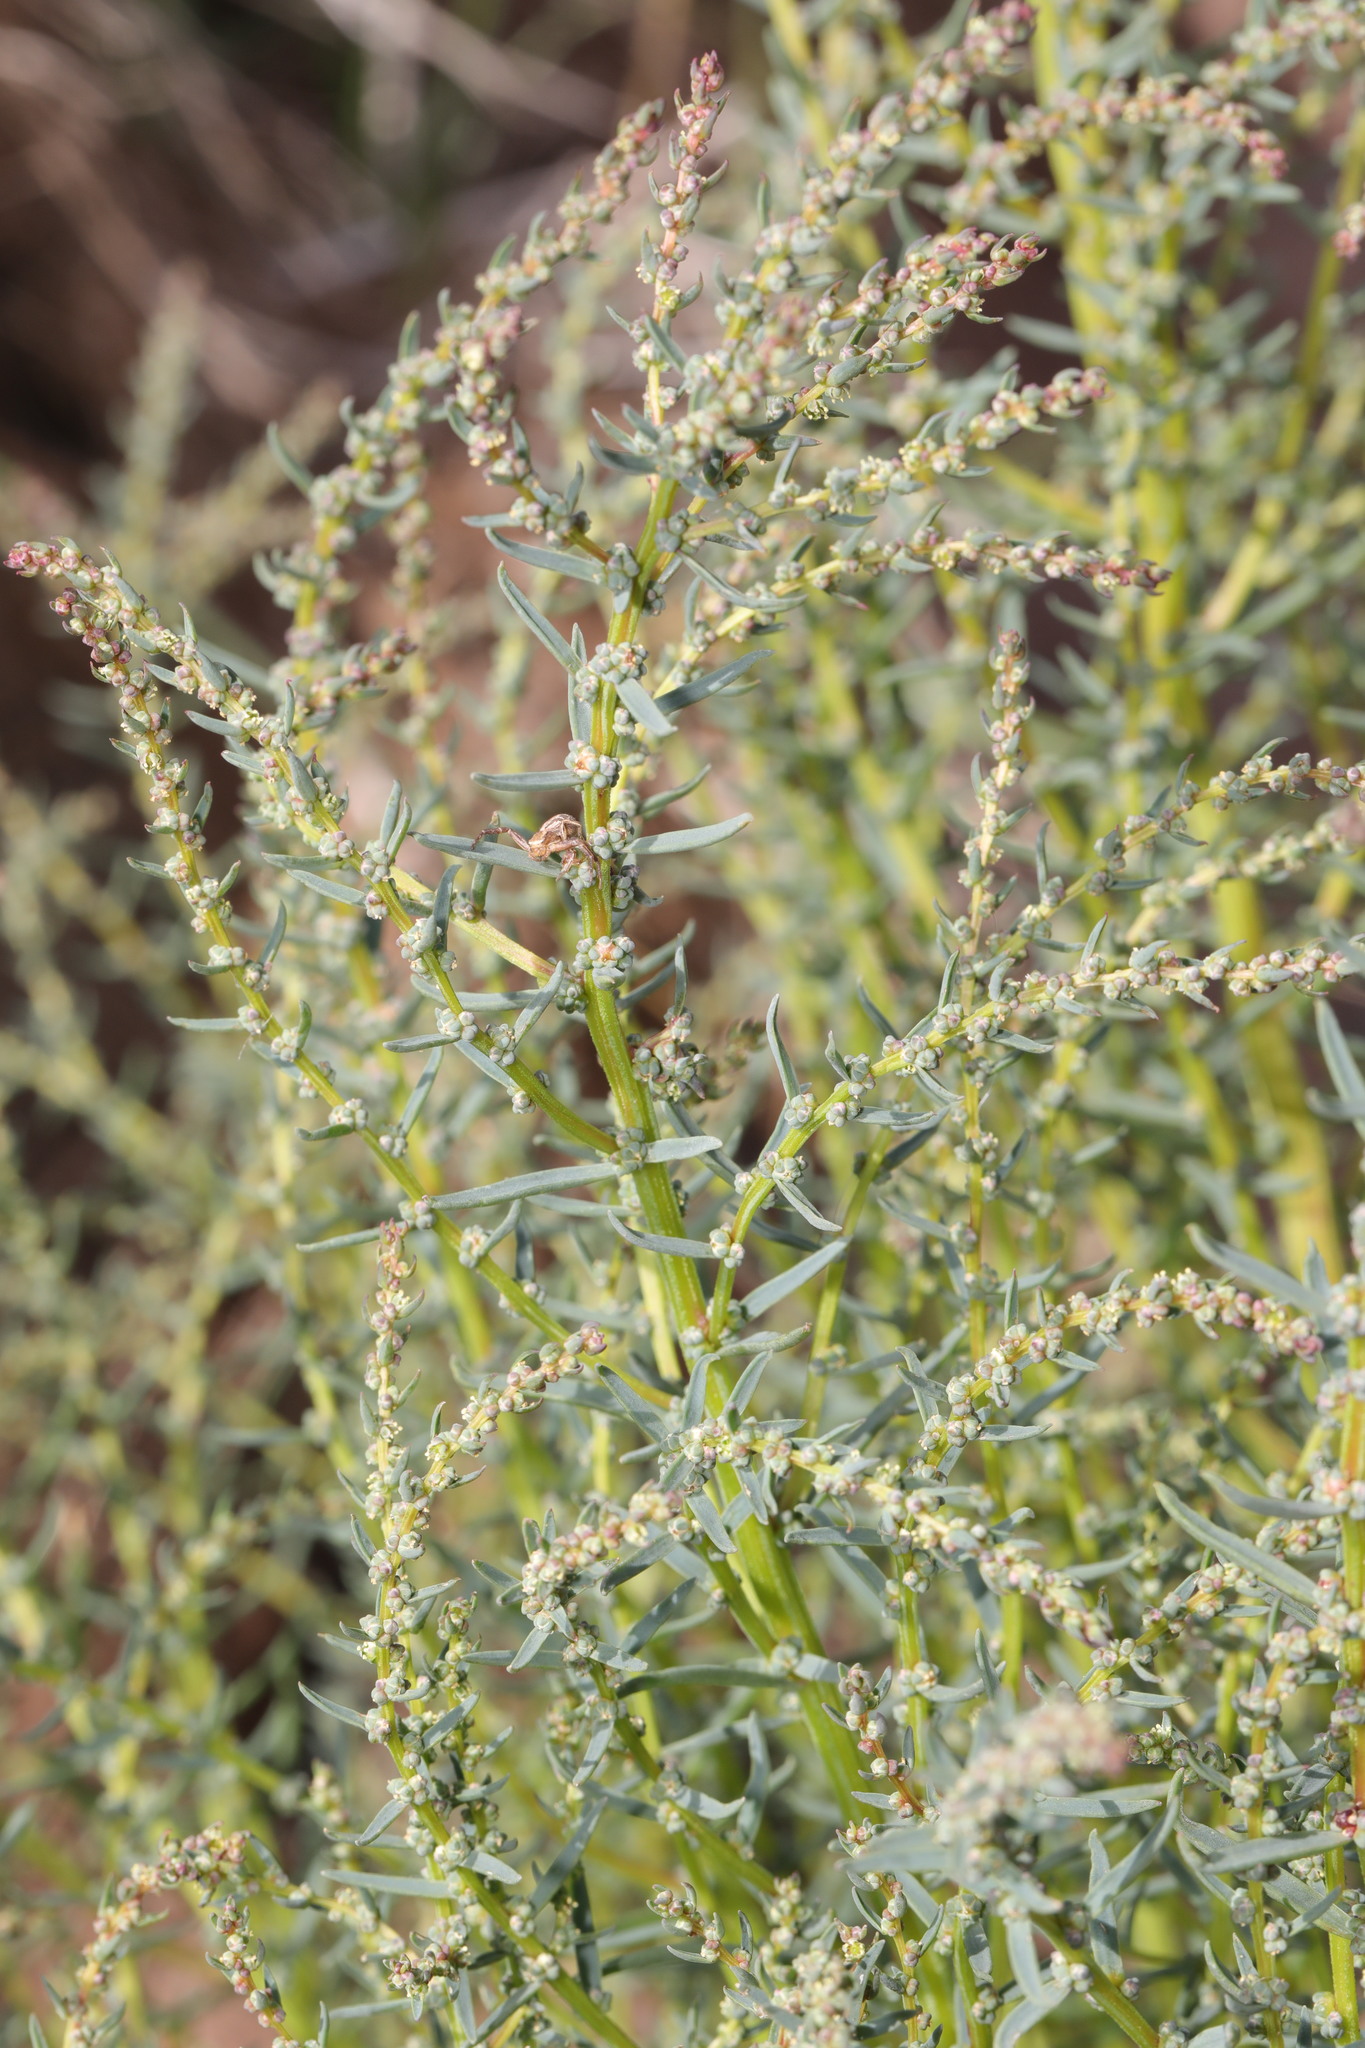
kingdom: Plantae
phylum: Tracheophyta
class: Magnoliopsida
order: Caryophyllales
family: Amaranthaceae
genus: Suaeda
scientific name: Suaeda maritima
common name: Annual sea-blite
